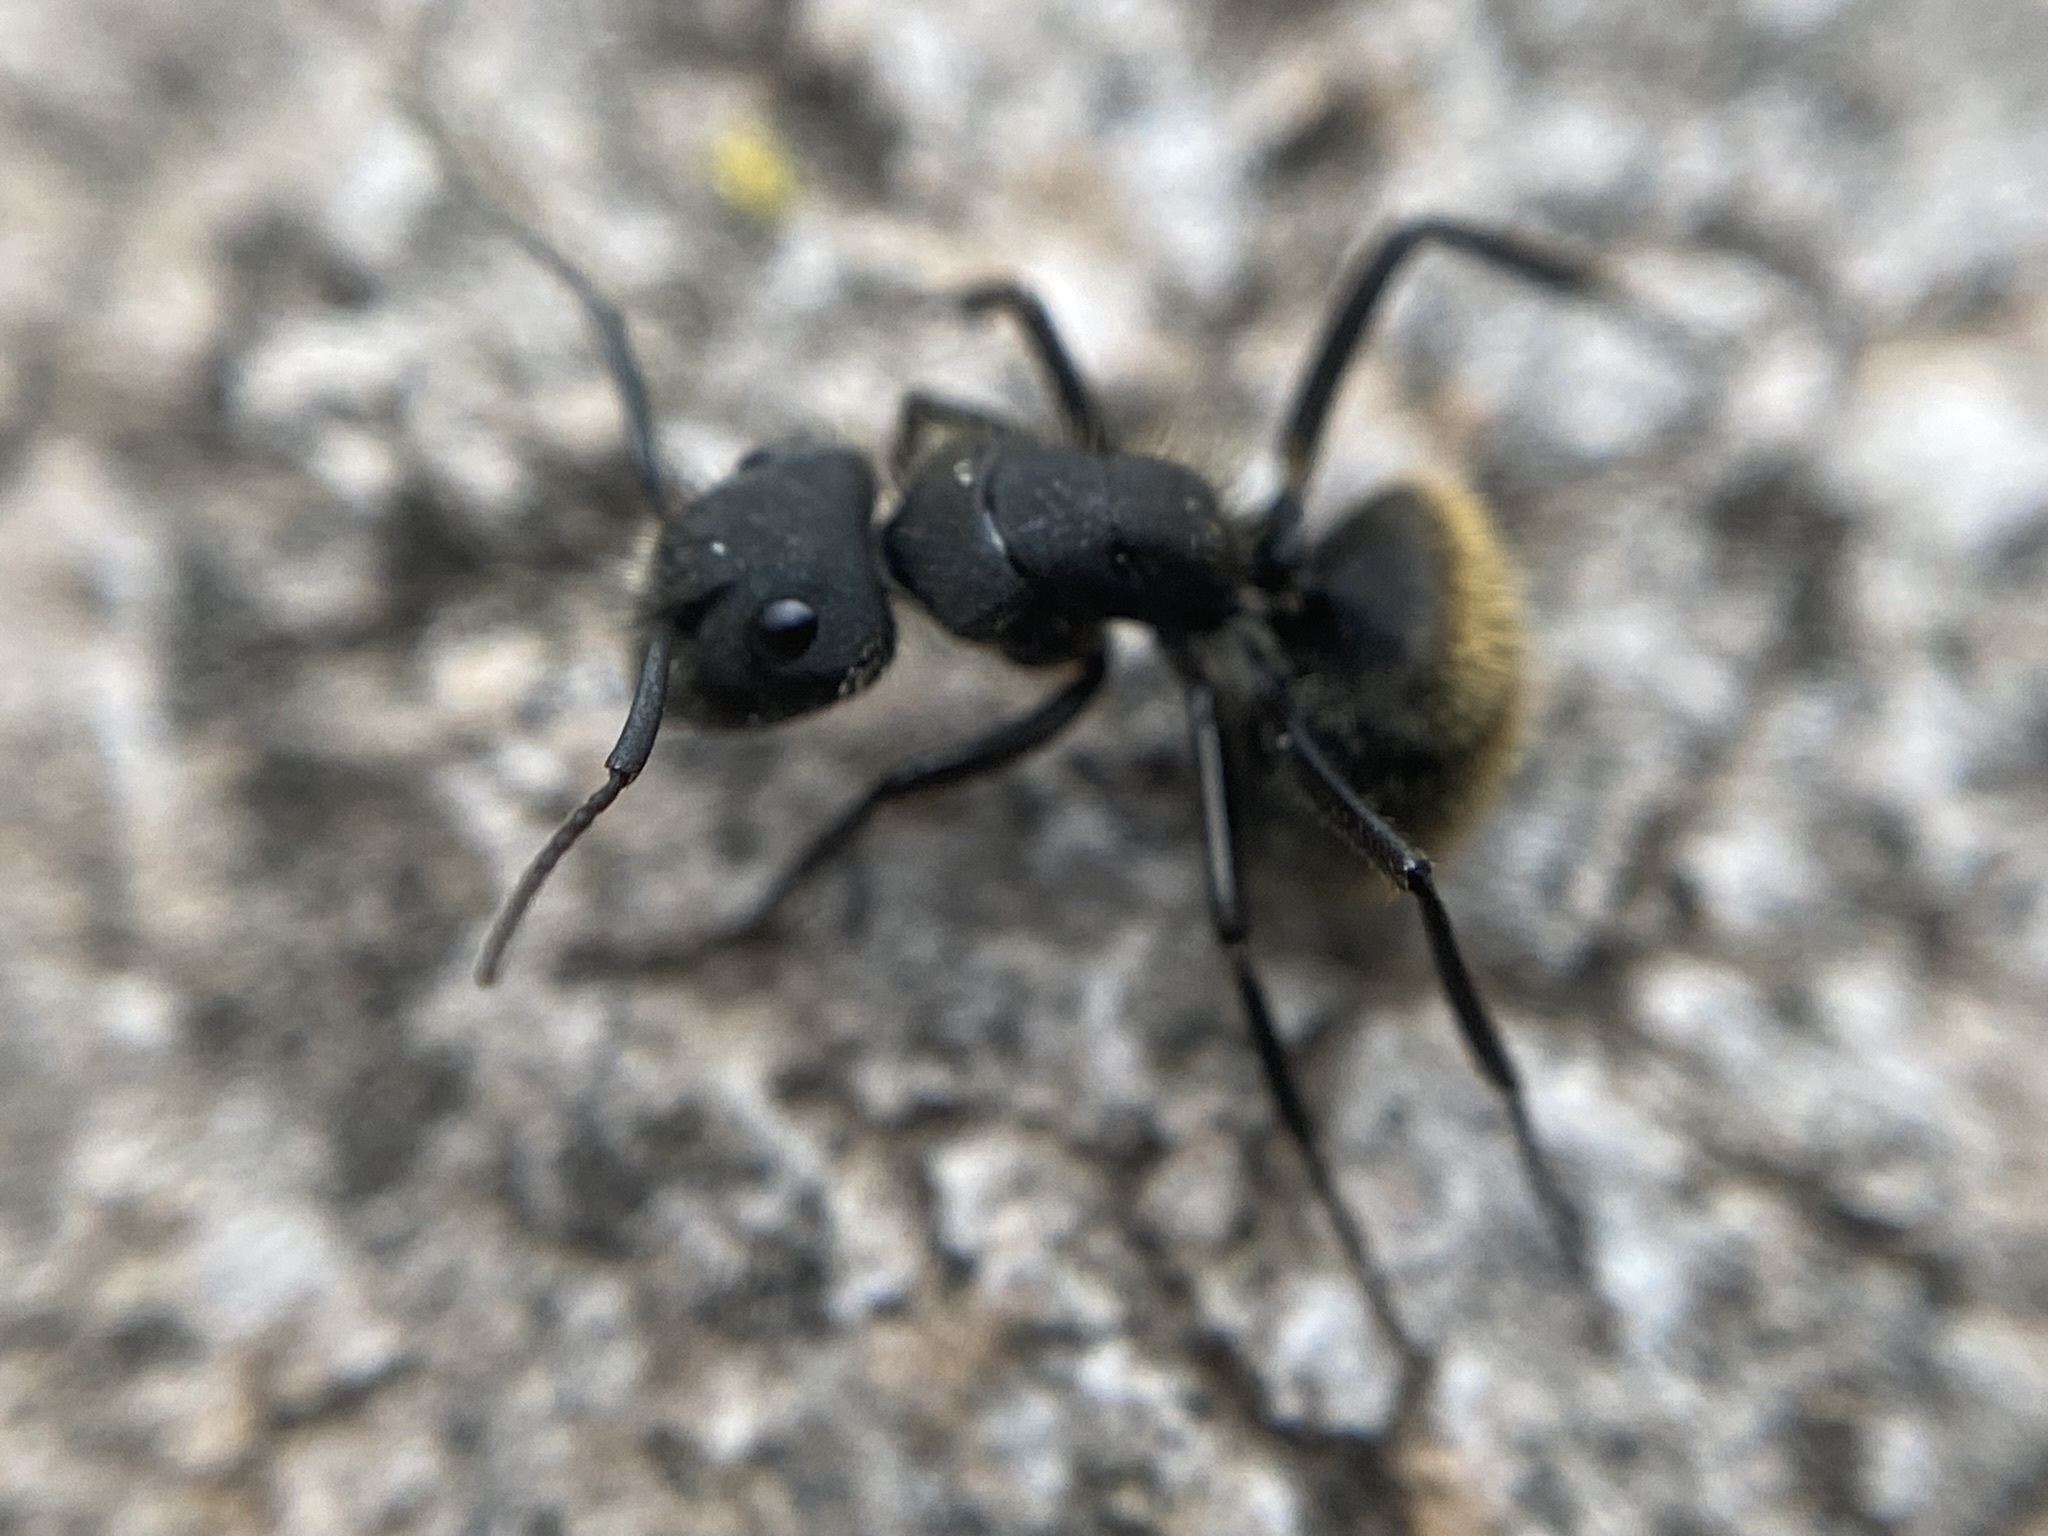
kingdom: Animalia
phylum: Arthropoda
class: Insecta
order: Hymenoptera
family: Formicidae
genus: Camponotus
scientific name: Camponotus mus
